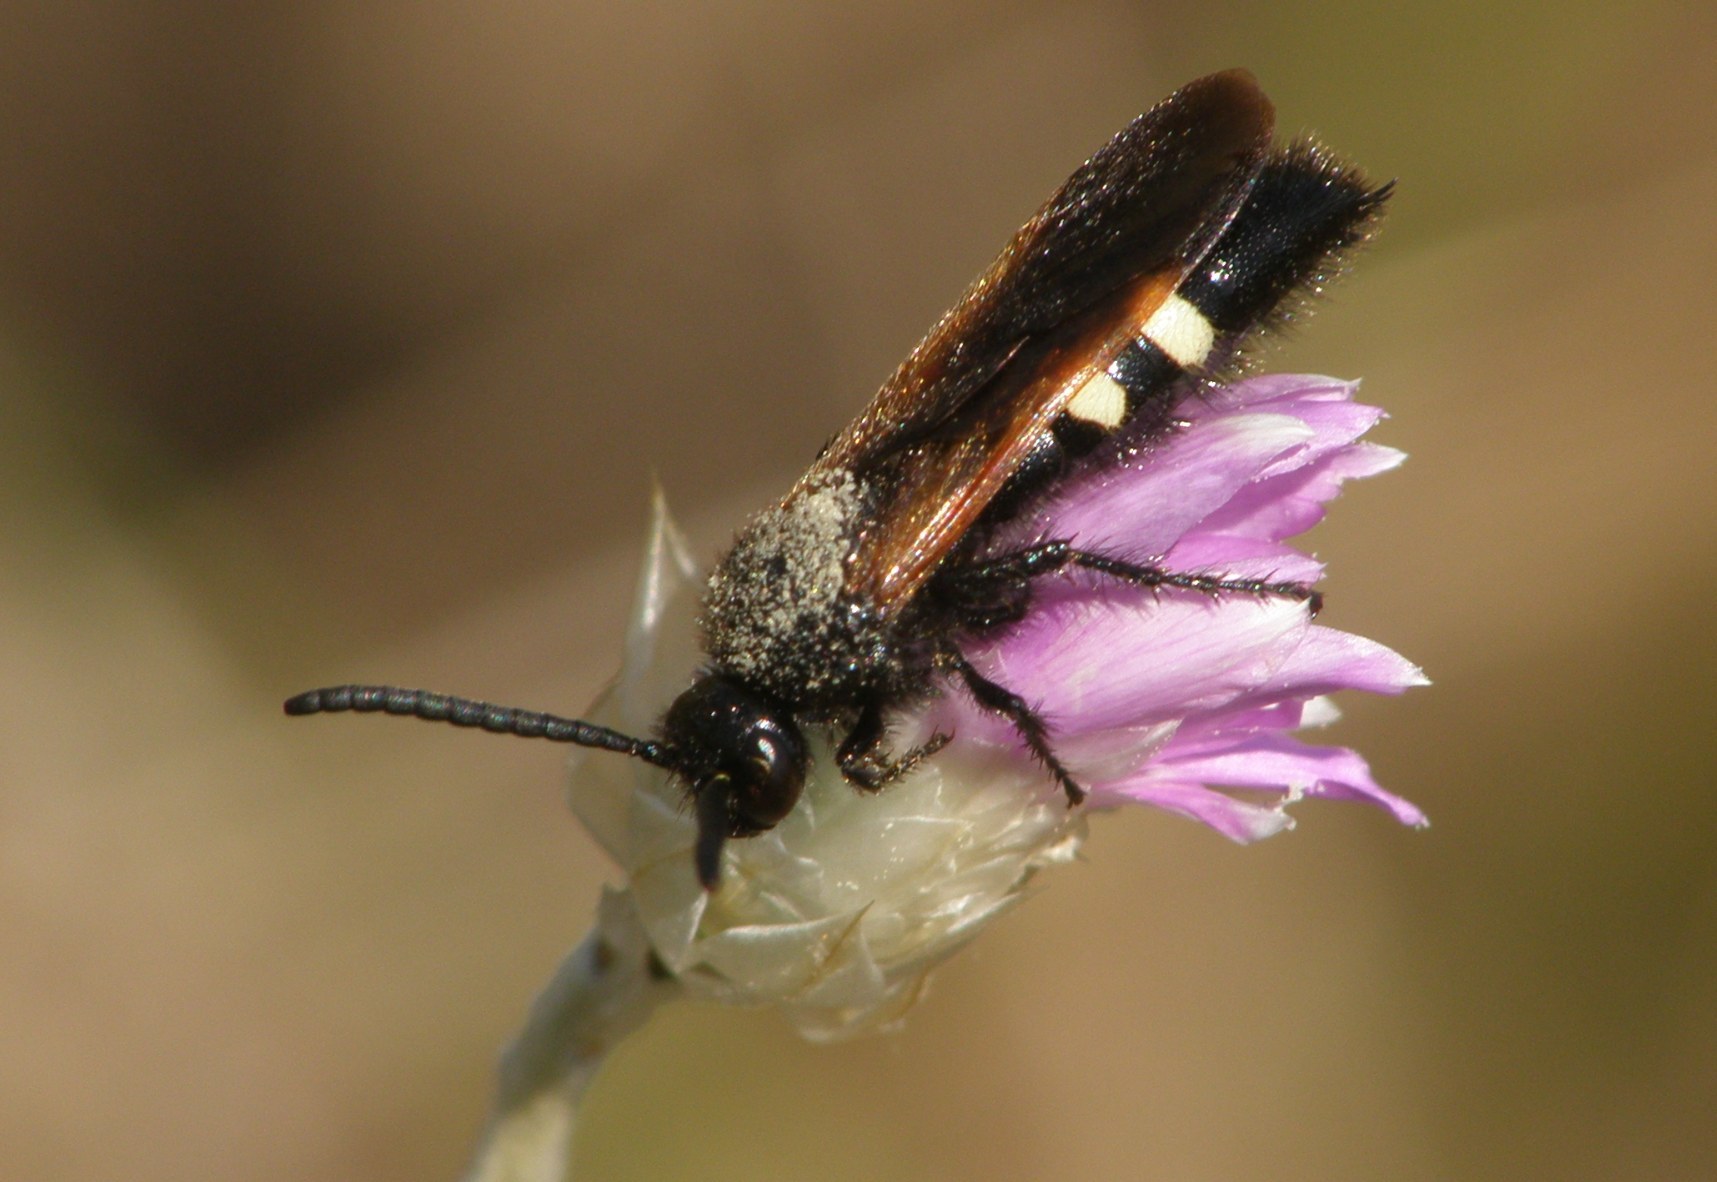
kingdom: Animalia
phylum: Arthropoda
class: Insecta
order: Hymenoptera
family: Vespidae
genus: Vespa
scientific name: Vespa sexmaculata
